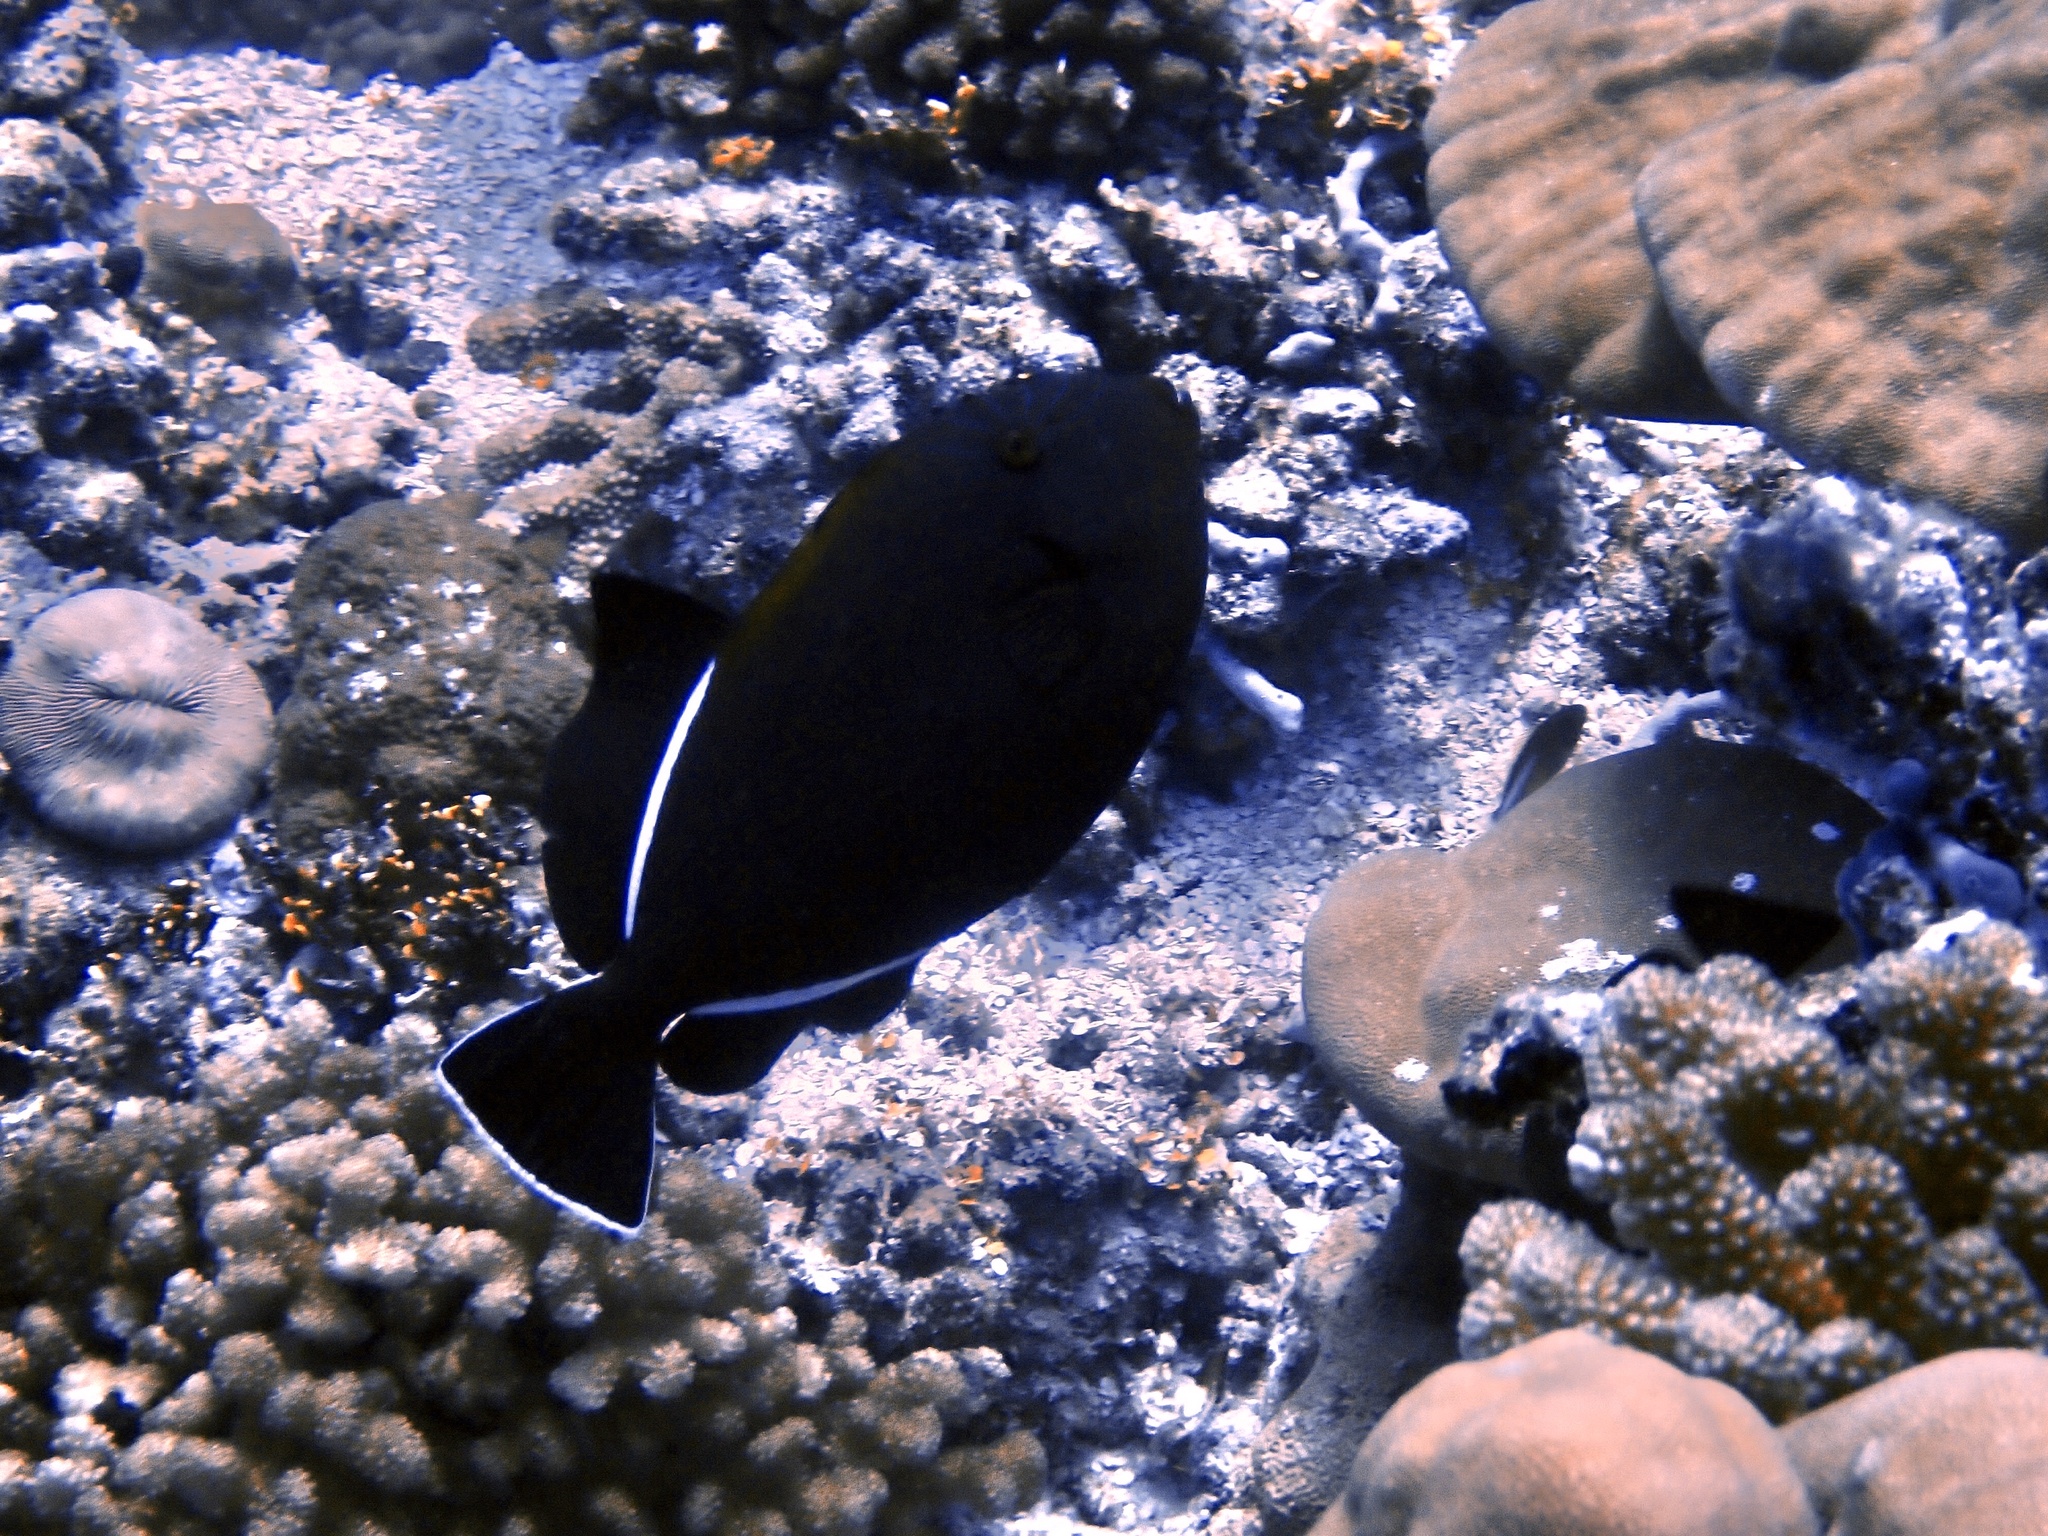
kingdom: Animalia
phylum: Chordata
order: Tetraodontiformes
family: Balistidae
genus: Melichthys
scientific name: Melichthys indicus
